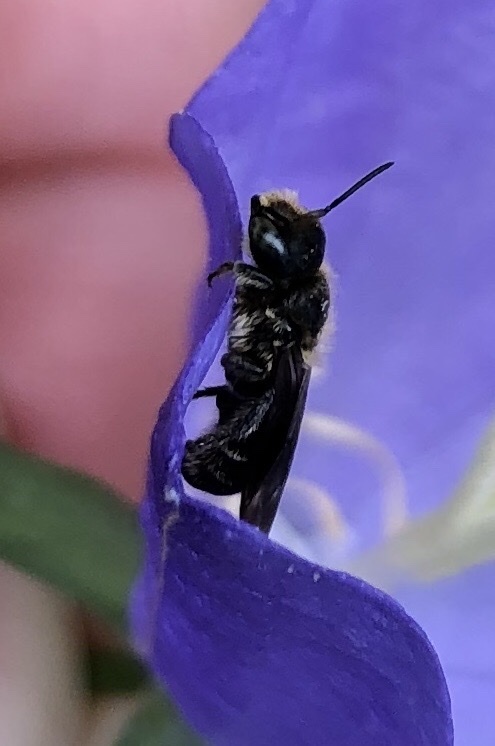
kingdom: Animalia
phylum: Arthropoda
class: Insecta
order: Hymenoptera
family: Megachilidae
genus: Chelostoma
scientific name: Chelostoma rapunculi
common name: Rampion scissor bee
